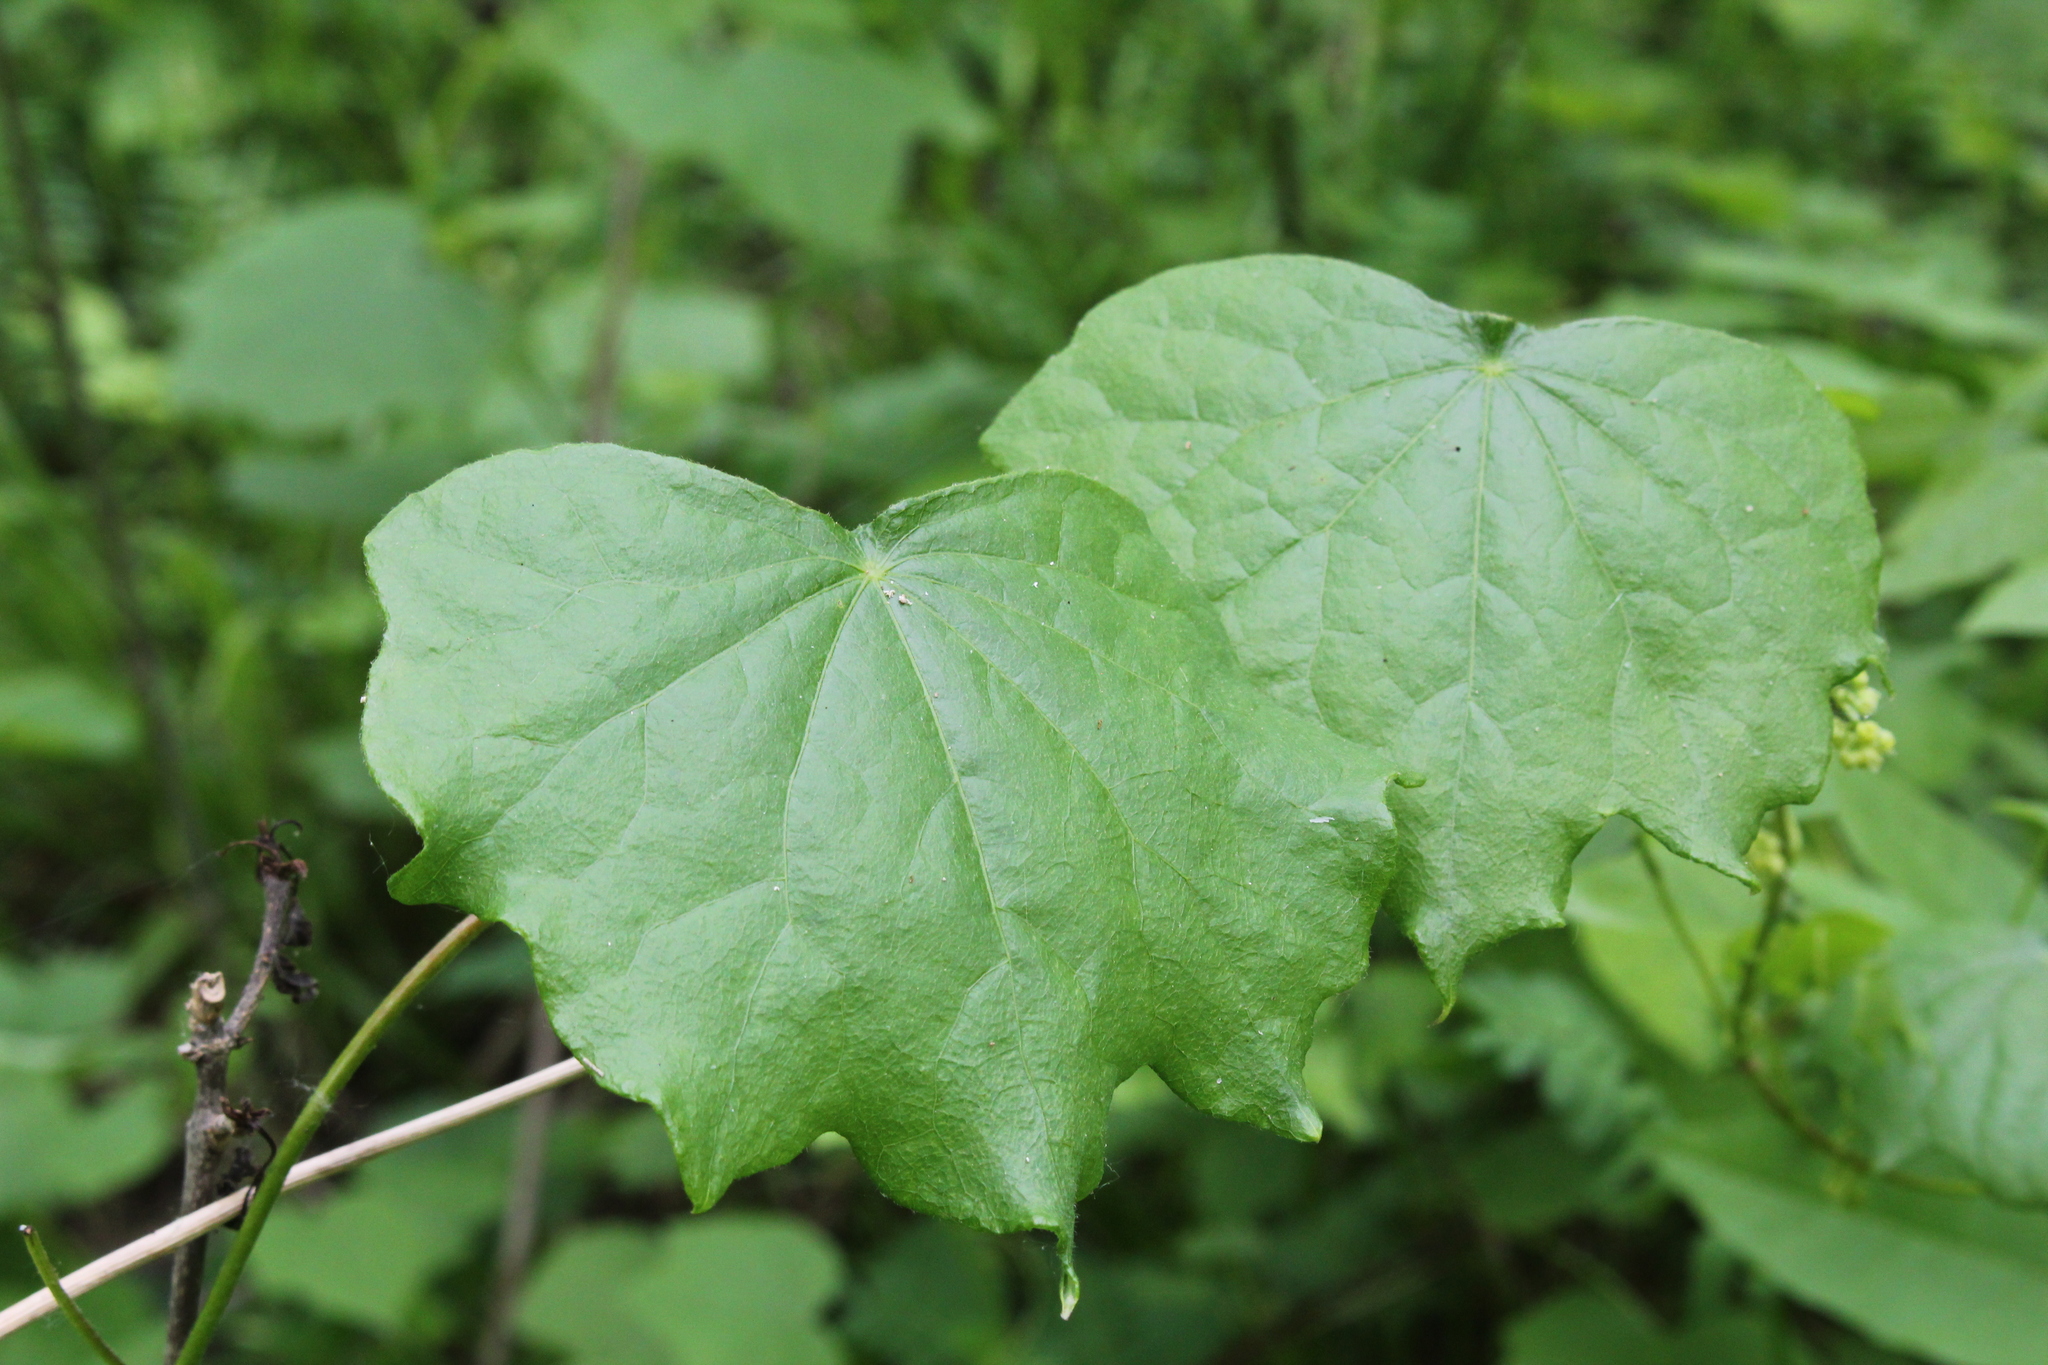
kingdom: Plantae
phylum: Tracheophyta
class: Magnoliopsida
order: Ranunculales
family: Menispermaceae
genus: Menispermum
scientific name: Menispermum canadense
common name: Moonseed
